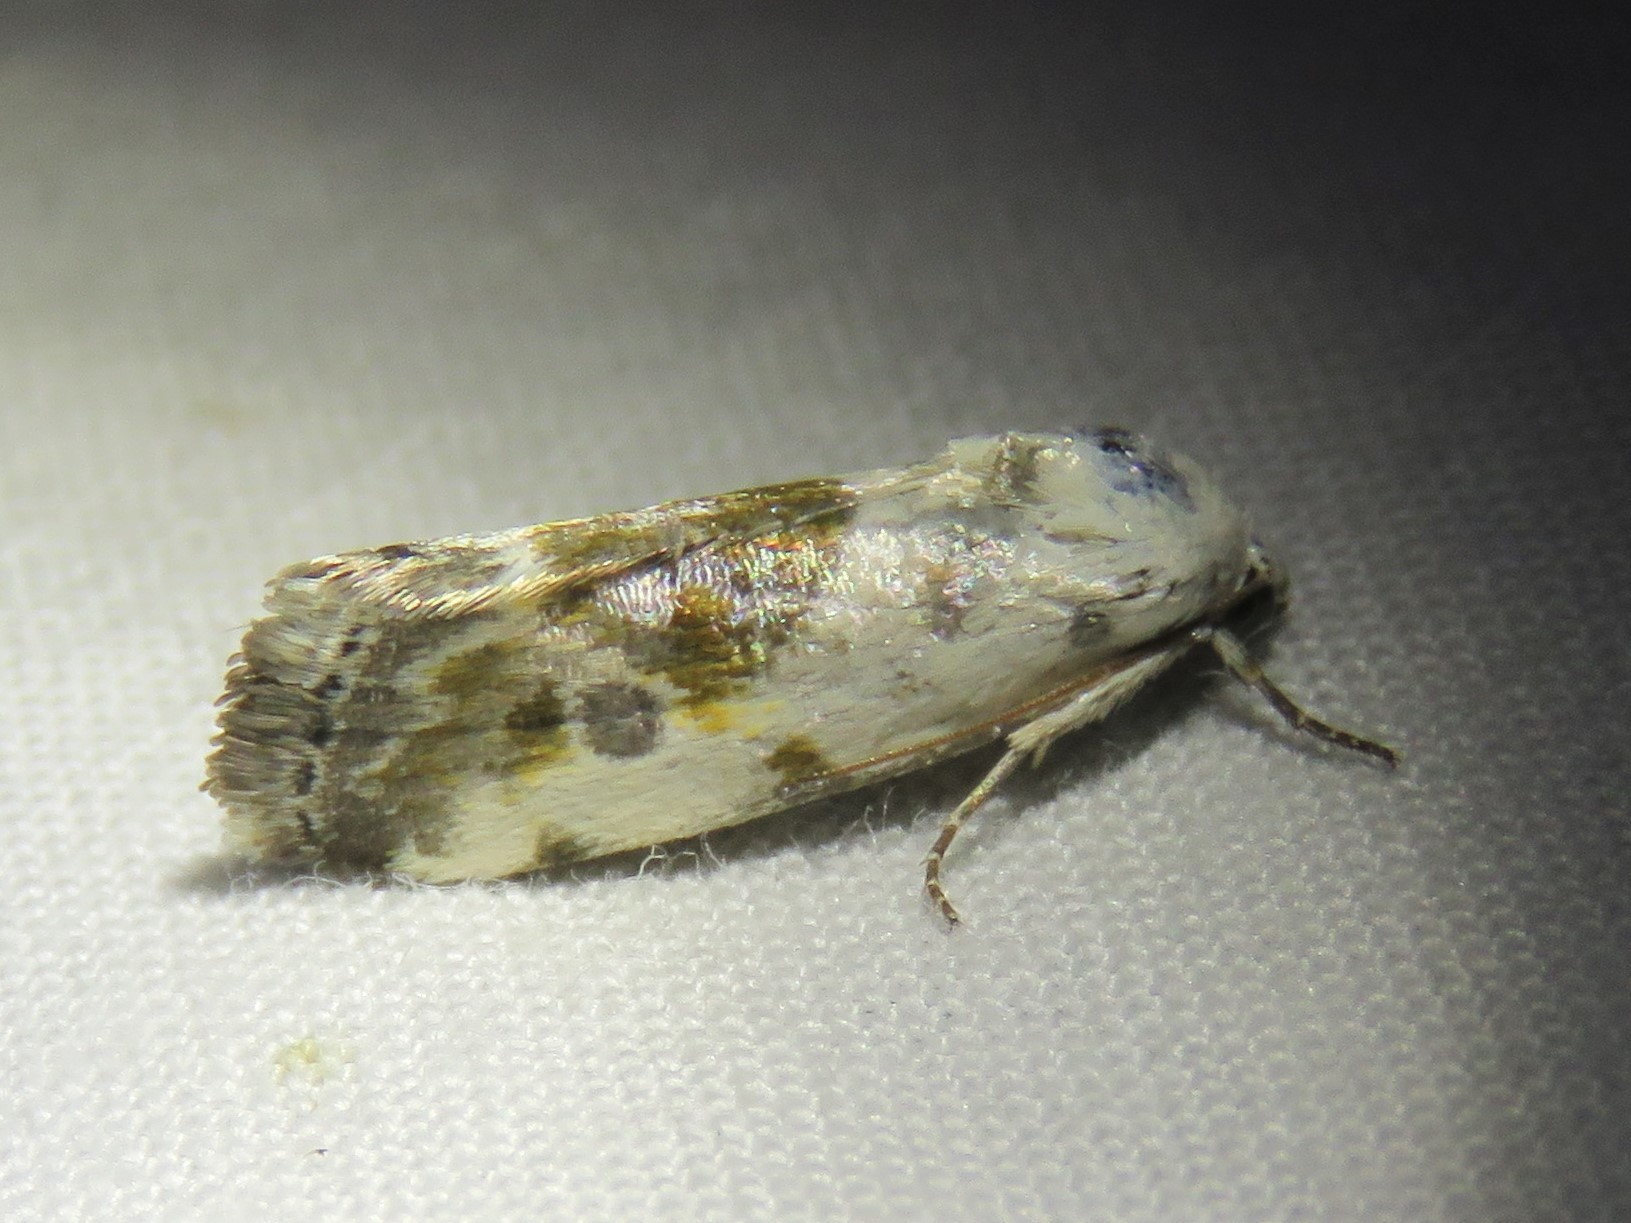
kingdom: Animalia
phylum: Arthropoda
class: Insecta
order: Lepidoptera
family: Noctuidae
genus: Acontia
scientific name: Acontia candefacta
